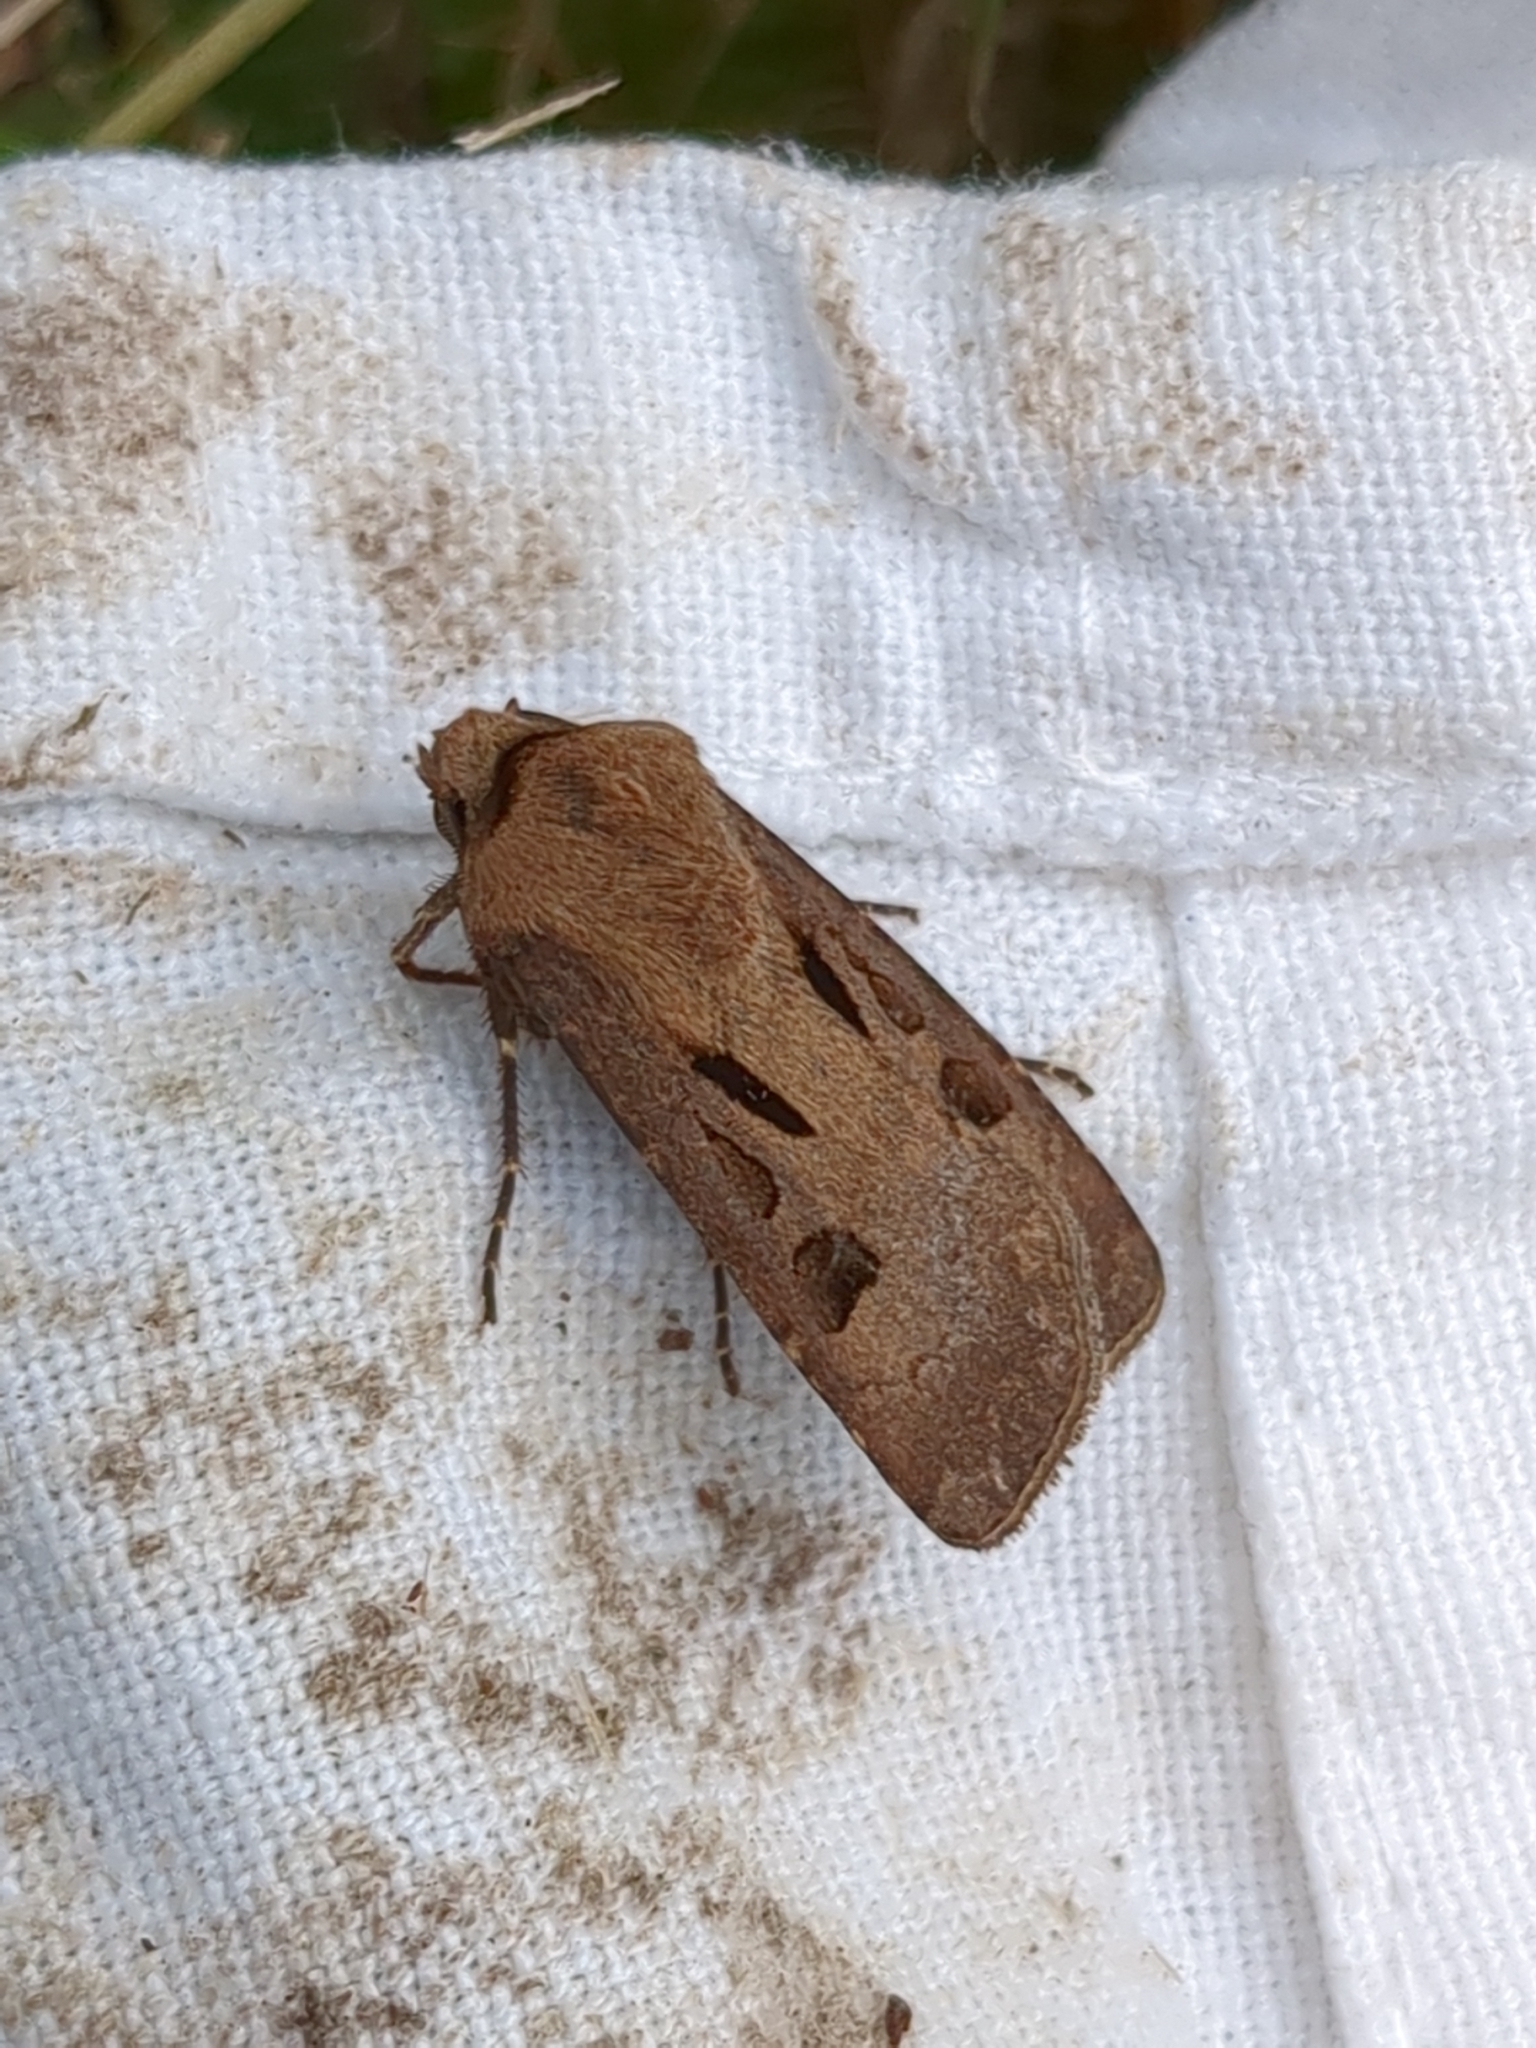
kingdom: Animalia
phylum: Arthropoda
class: Insecta
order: Lepidoptera
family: Noctuidae
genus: Agrotis
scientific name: Agrotis exclamationis
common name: Heart and dart
